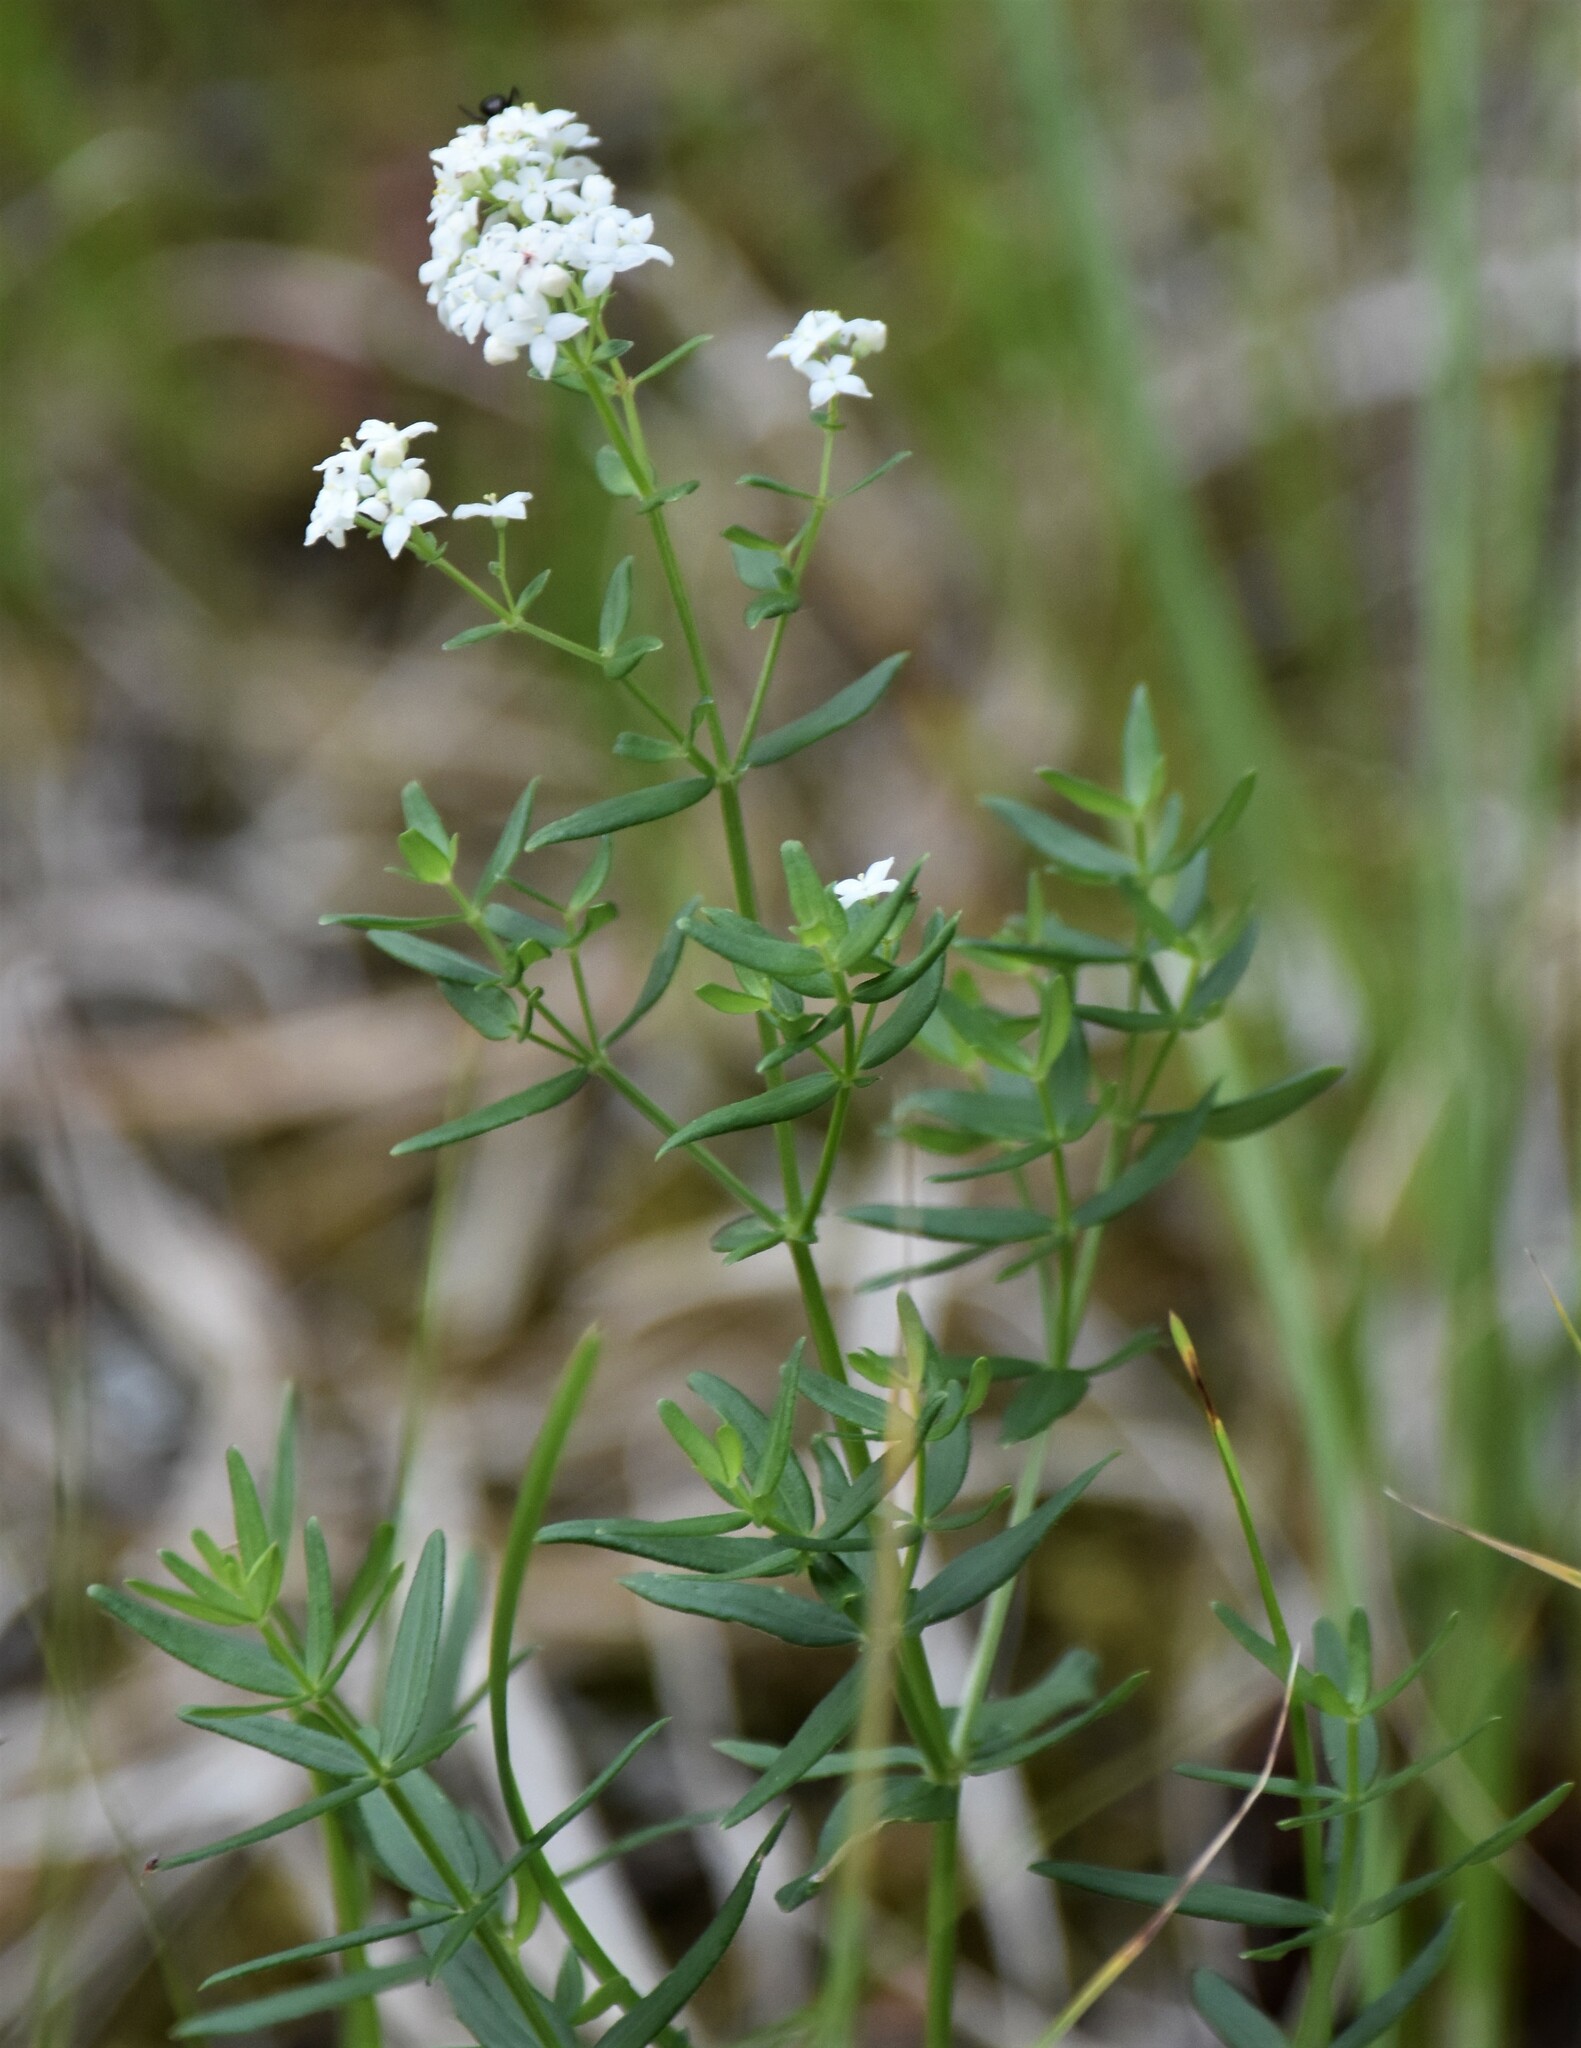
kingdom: Plantae
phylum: Tracheophyta
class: Magnoliopsida
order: Gentianales
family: Rubiaceae
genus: Galium
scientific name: Galium boreale
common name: Northern bedstraw
